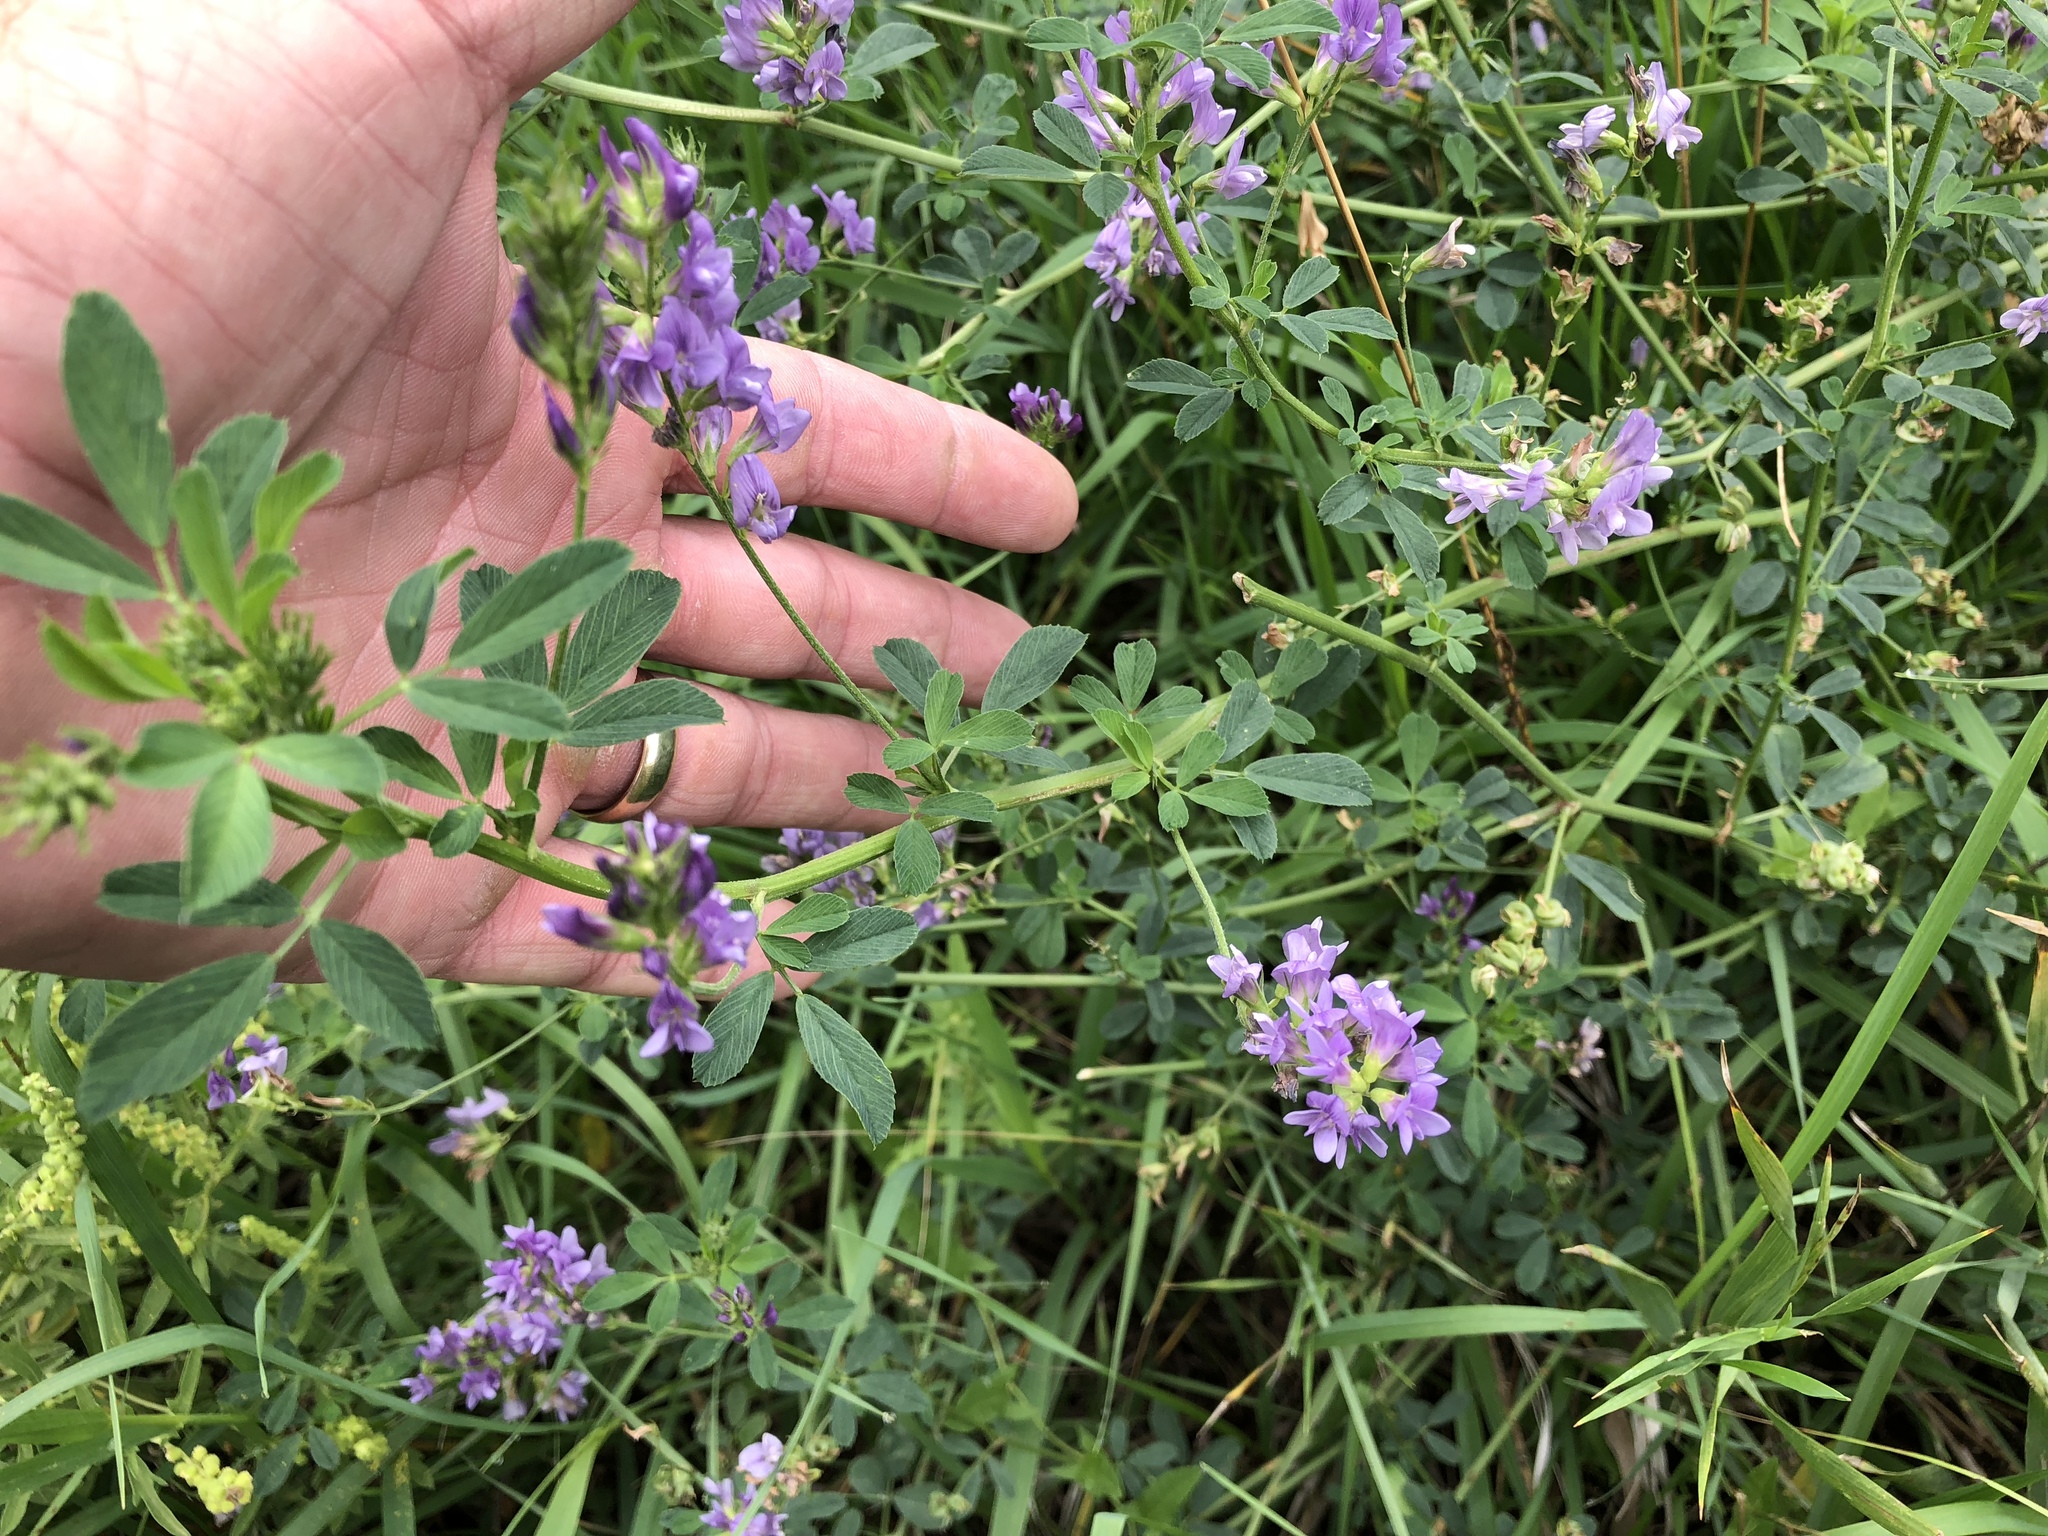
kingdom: Plantae
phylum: Tracheophyta
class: Magnoliopsida
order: Fabales
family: Fabaceae
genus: Medicago
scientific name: Medicago sativa
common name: Alfalfa
